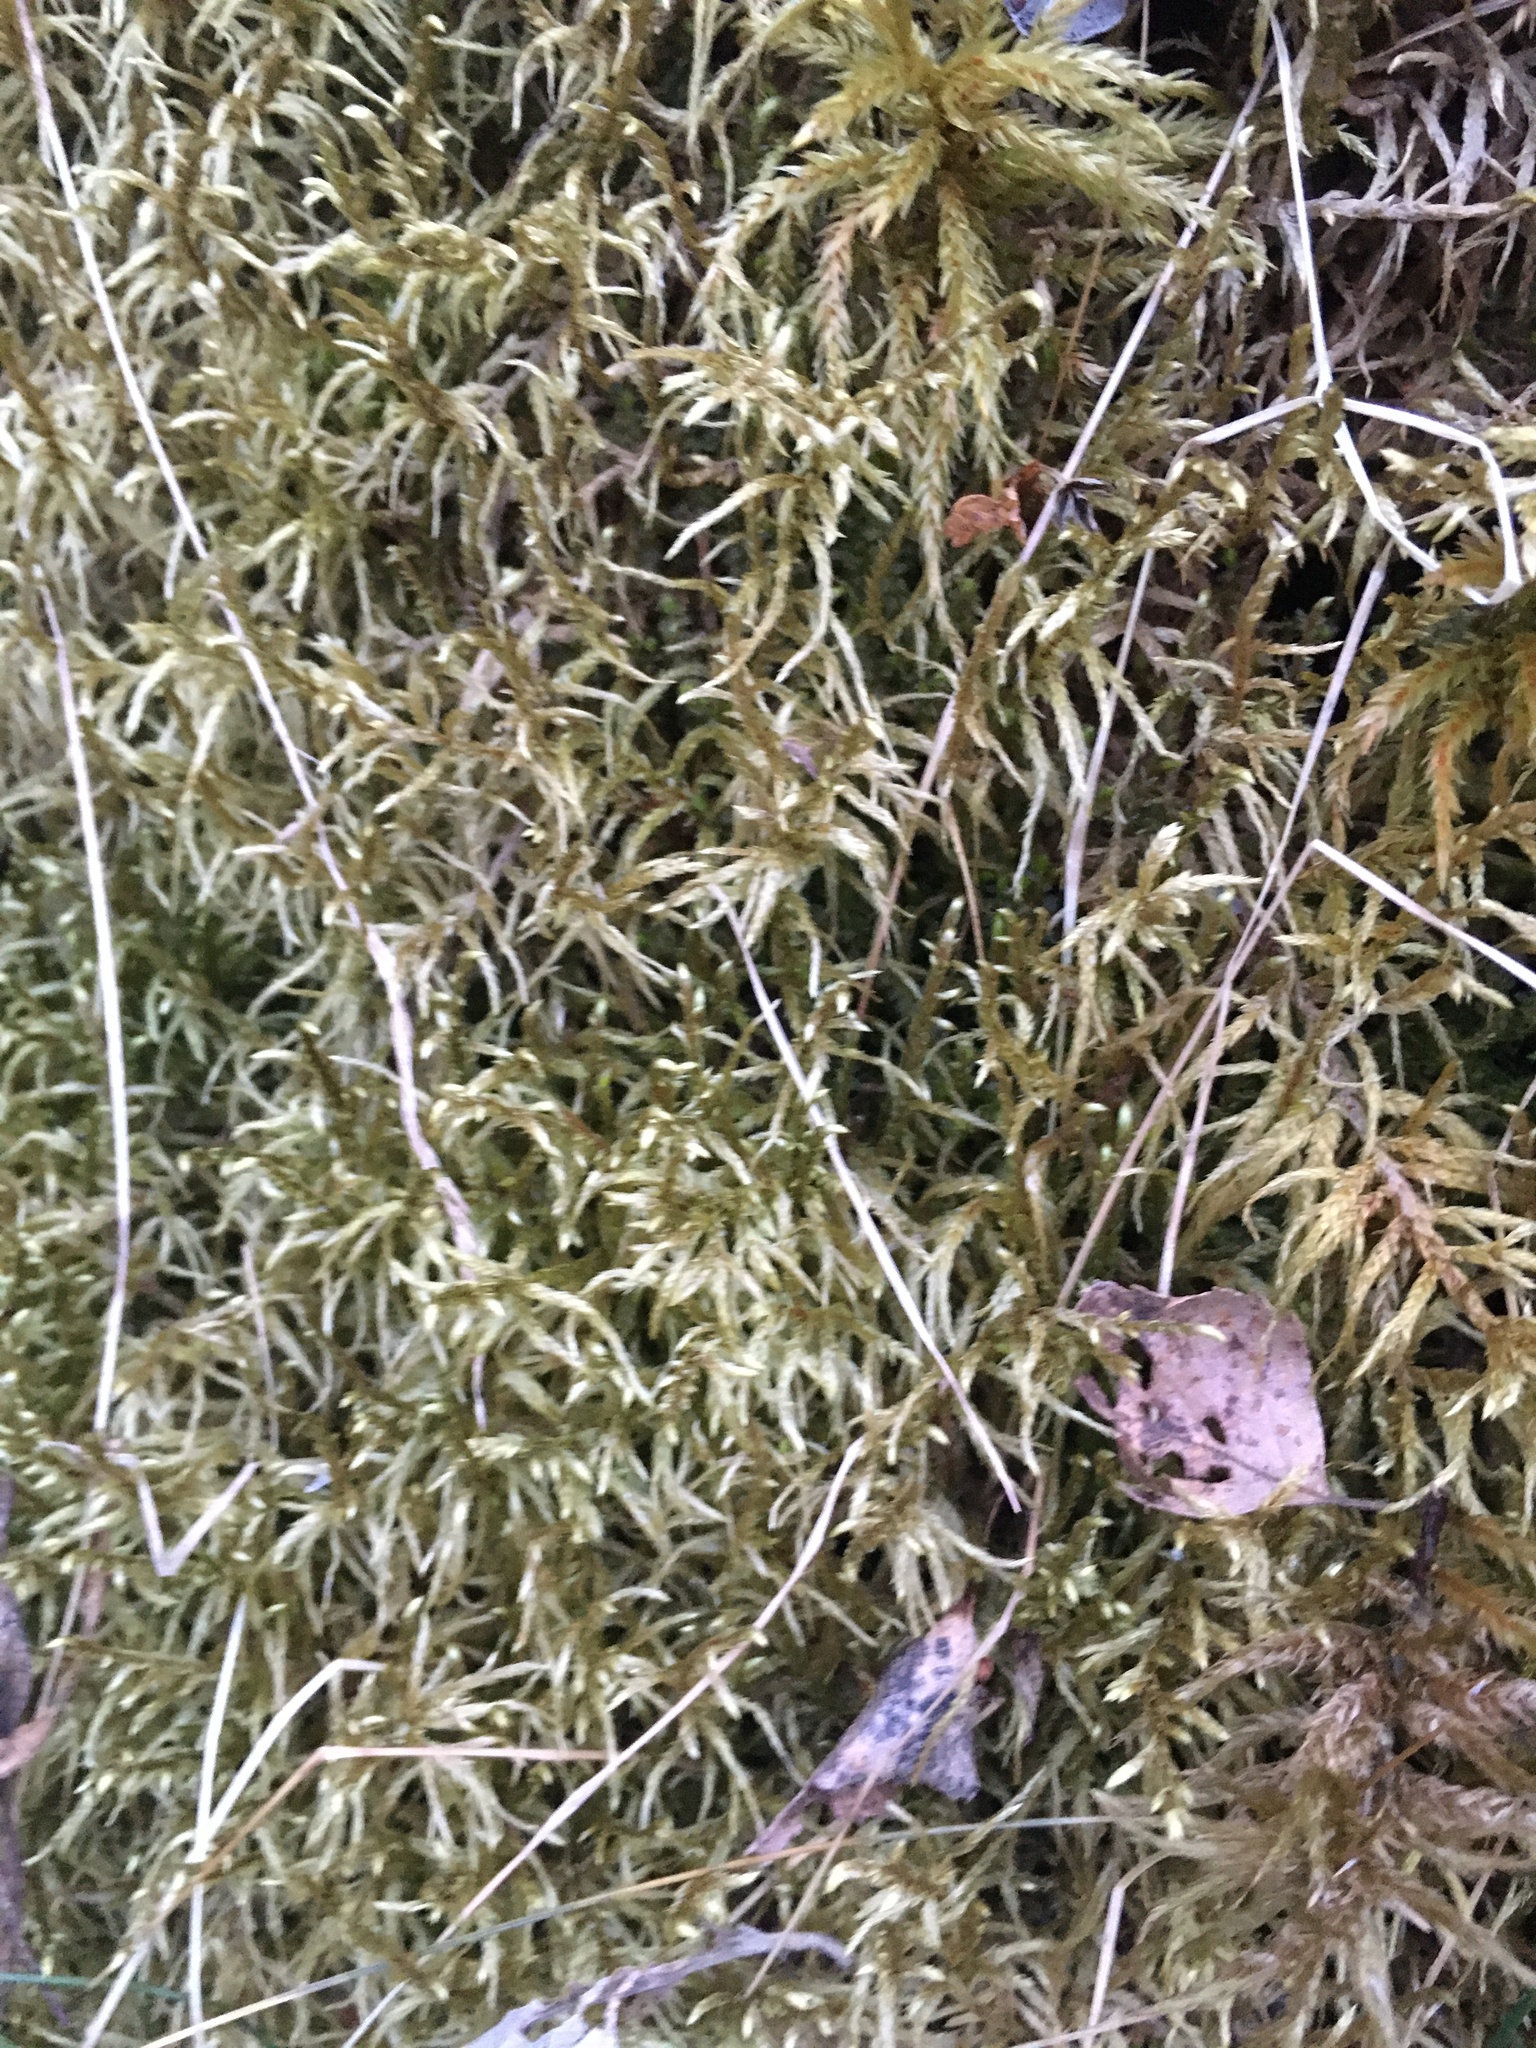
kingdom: Plantae
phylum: Bryophyta
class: Bryopsida
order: Hypnales
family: Hylocomiaceae
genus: Pleurozium
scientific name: Pleurozium schreberi
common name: Red-stemmed feather moss
